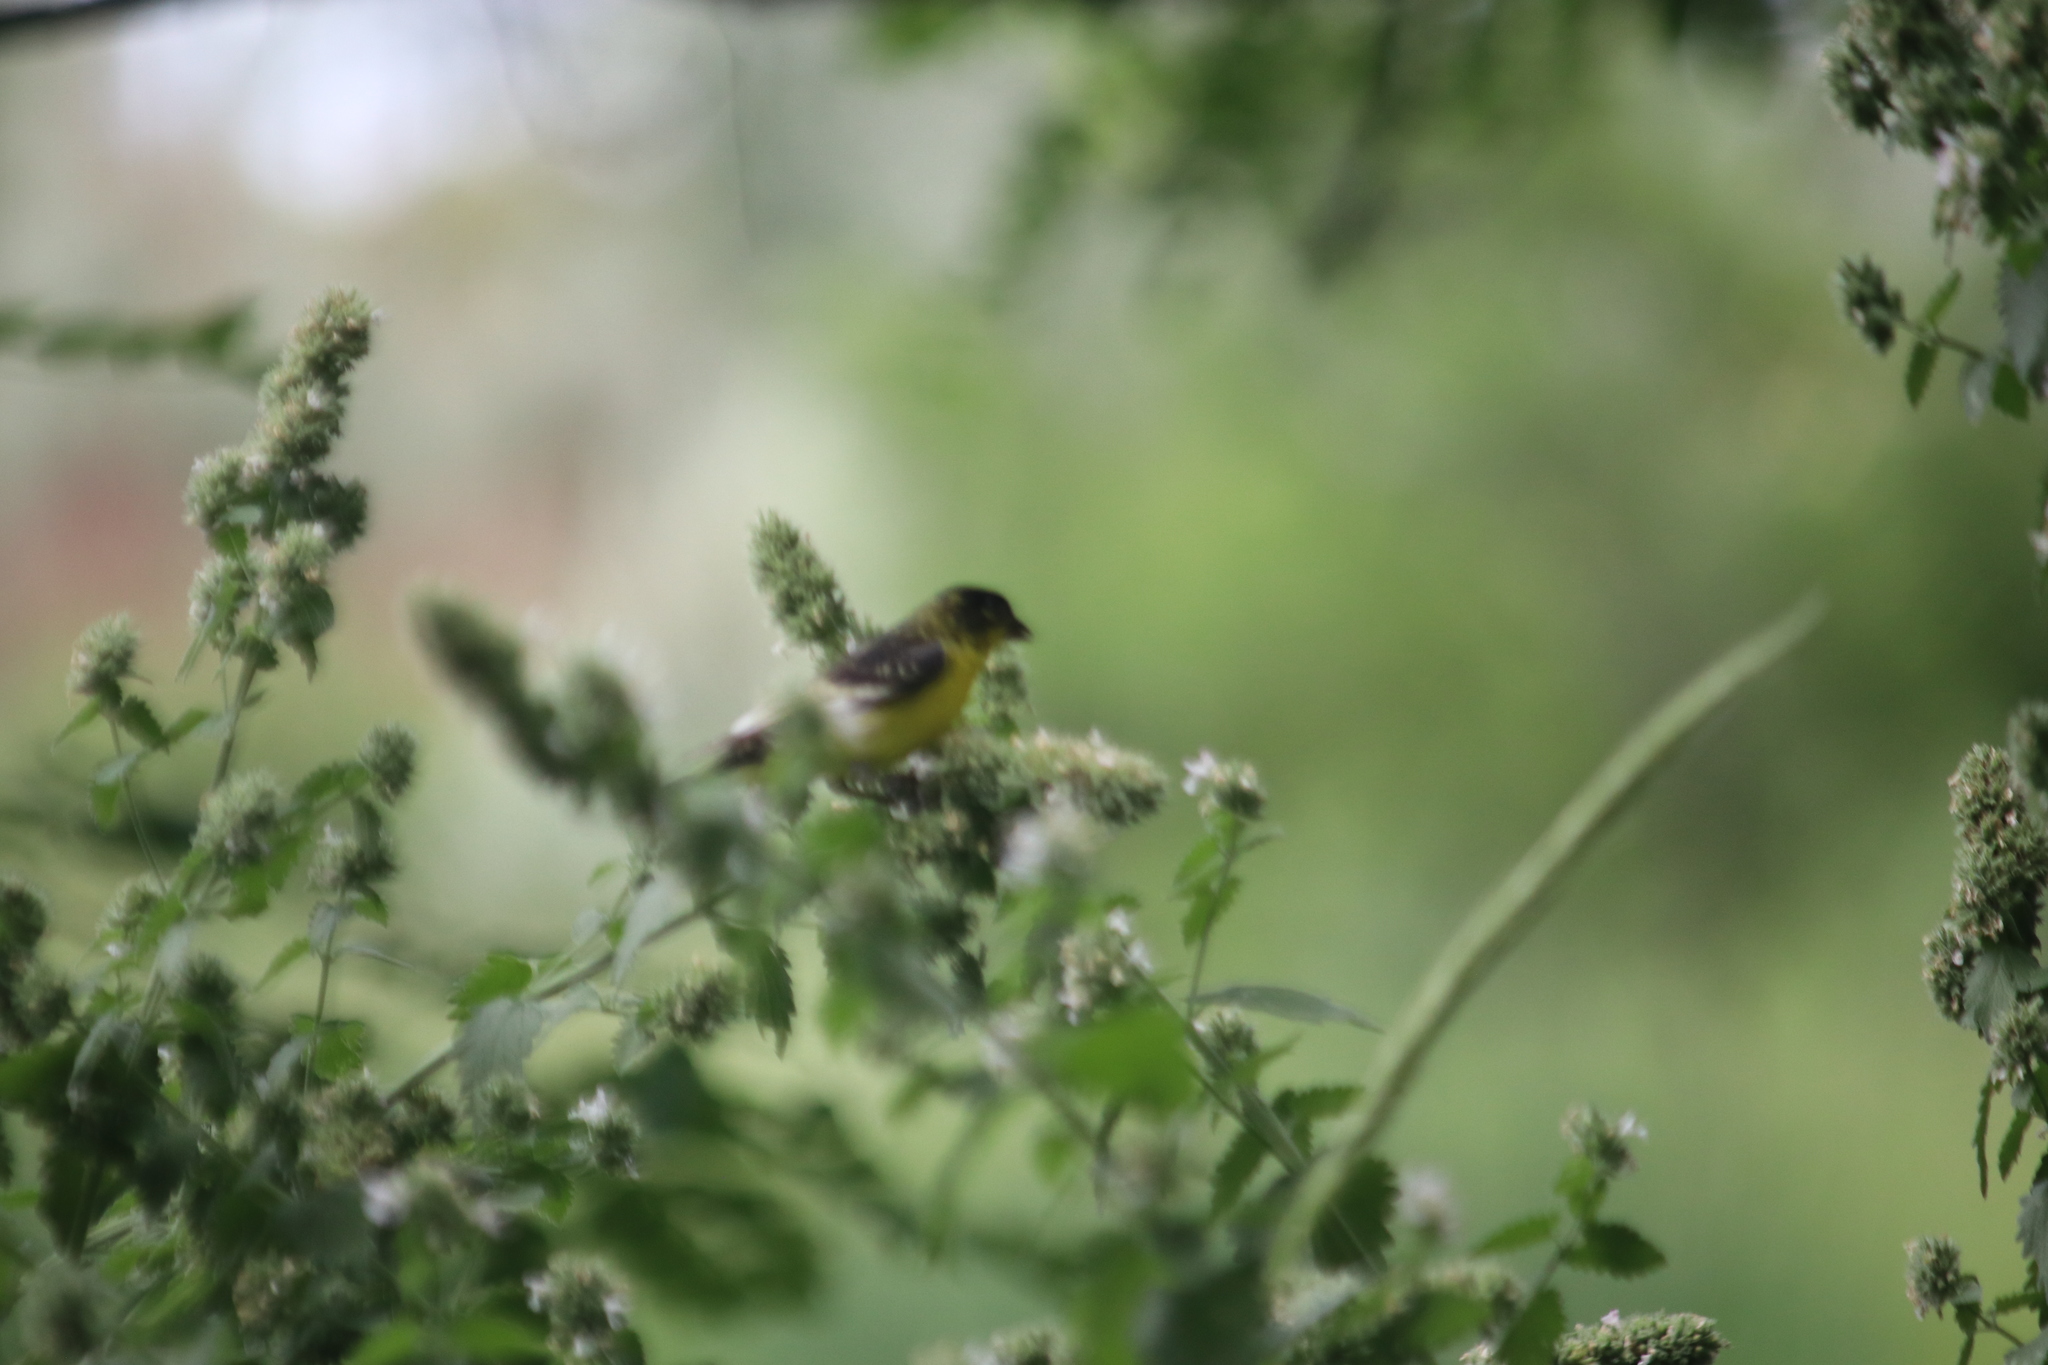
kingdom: Animalia
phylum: Chordata
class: Aves
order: Passeriformes
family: Fringillidae
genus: Spinus
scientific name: Spinus psaltria
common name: Lesser goldfinch
